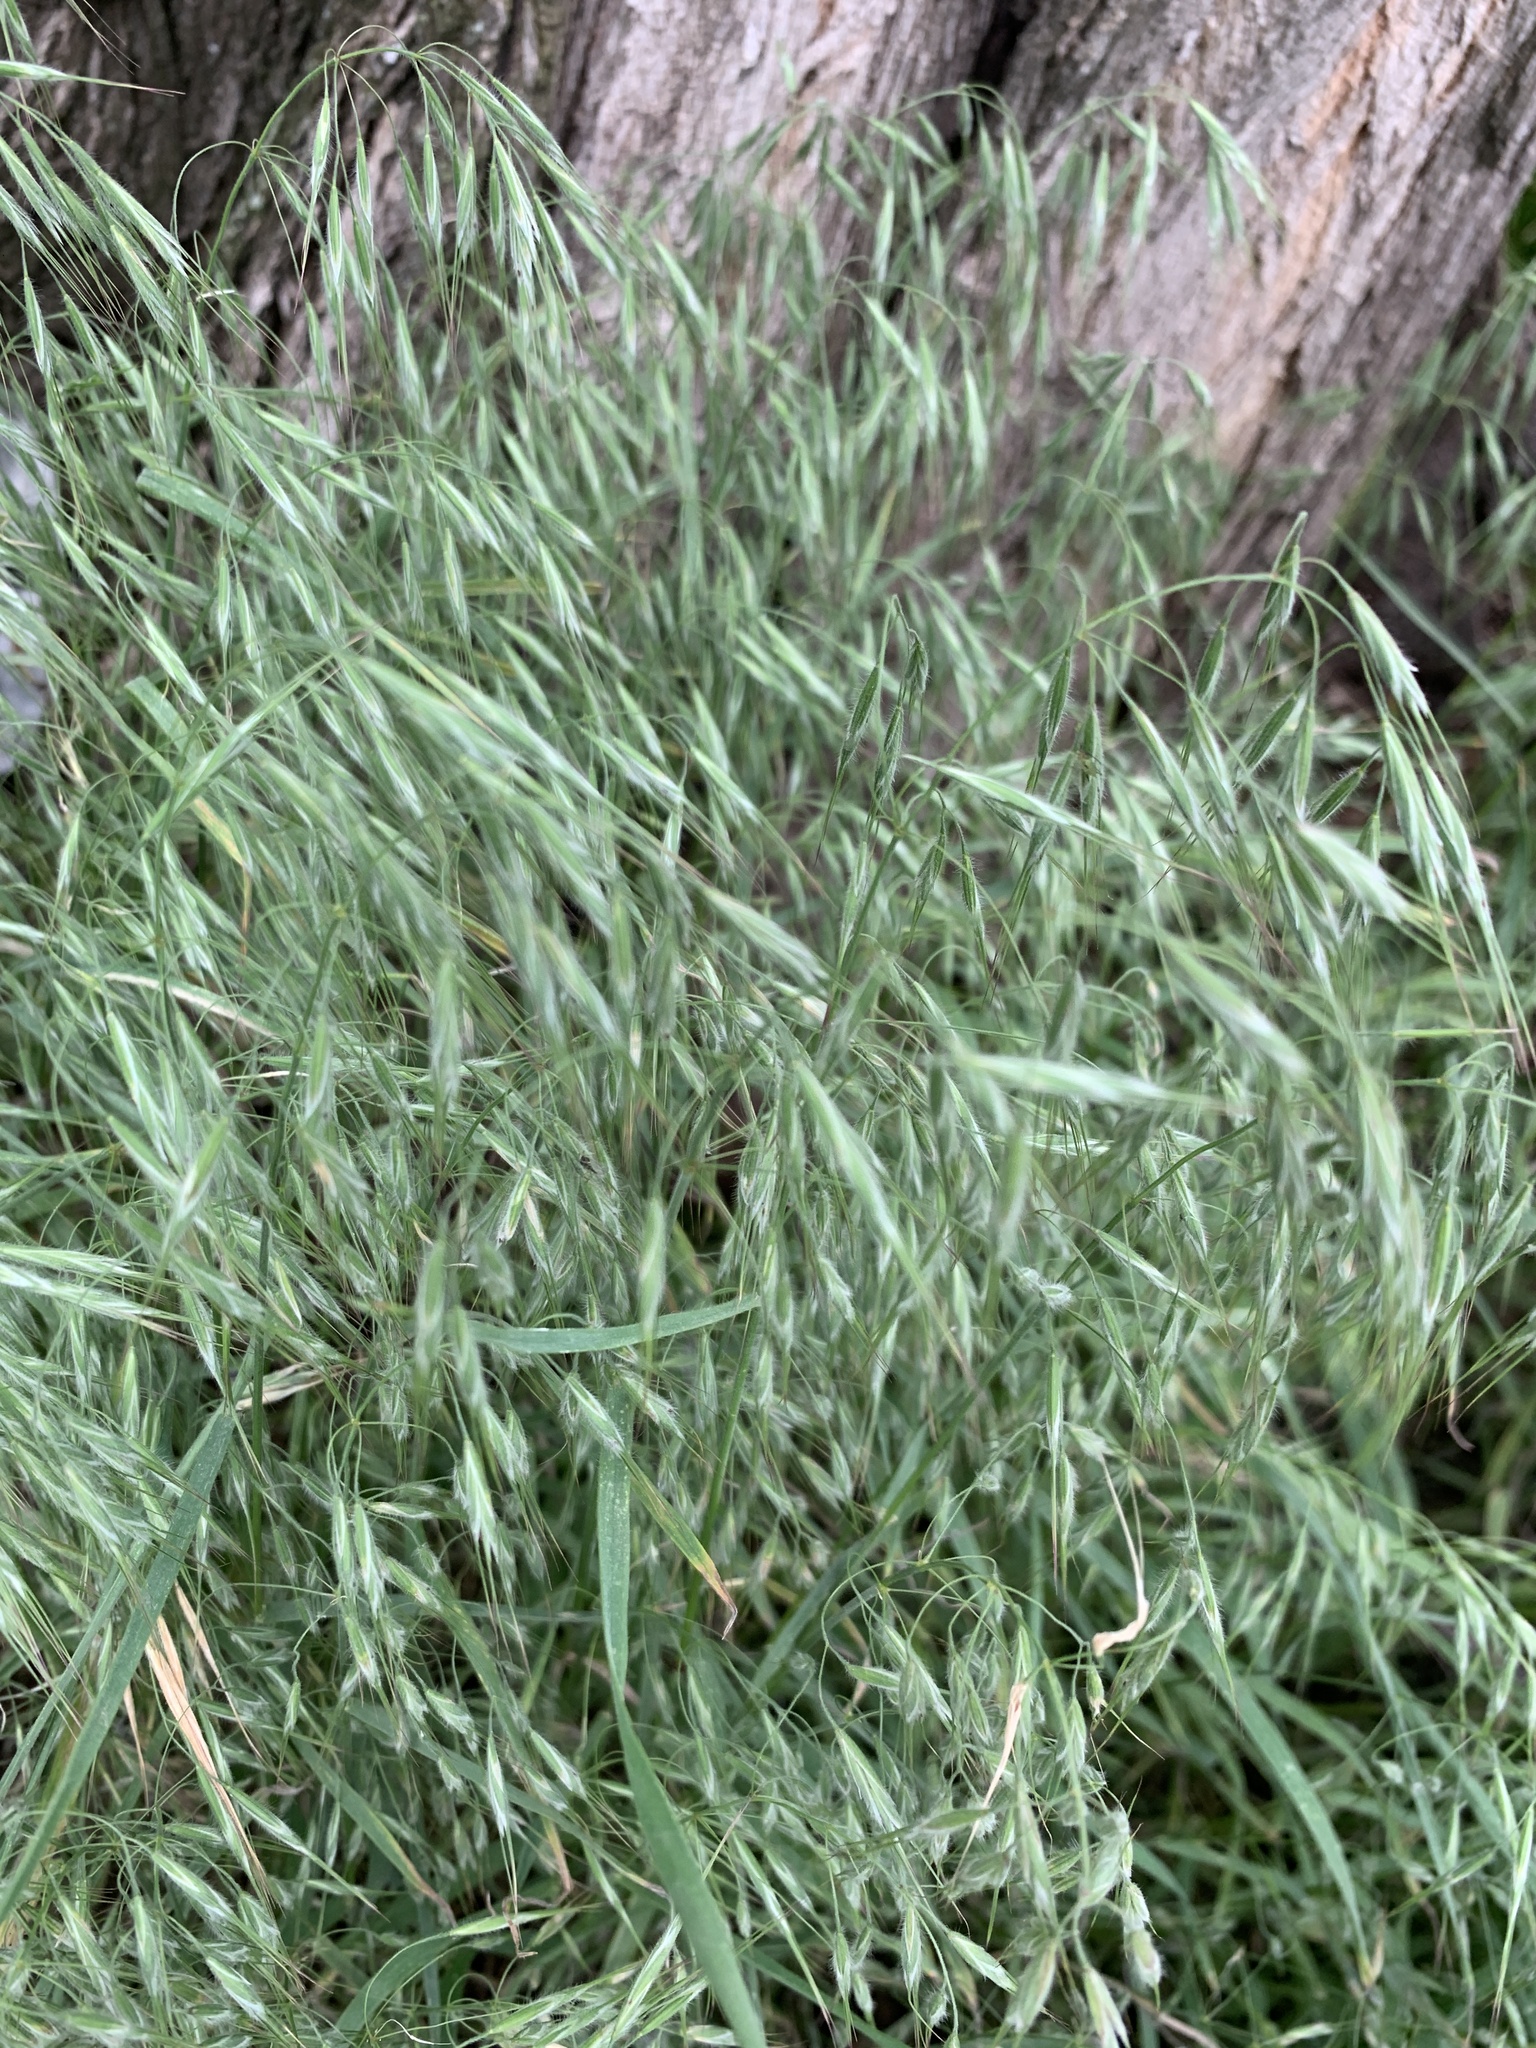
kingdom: Plantae
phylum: Tracheophyta
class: Liliopsida
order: Poales
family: Poaceae
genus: Bromus
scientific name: Bromus tectorum
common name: Cheatgrass
